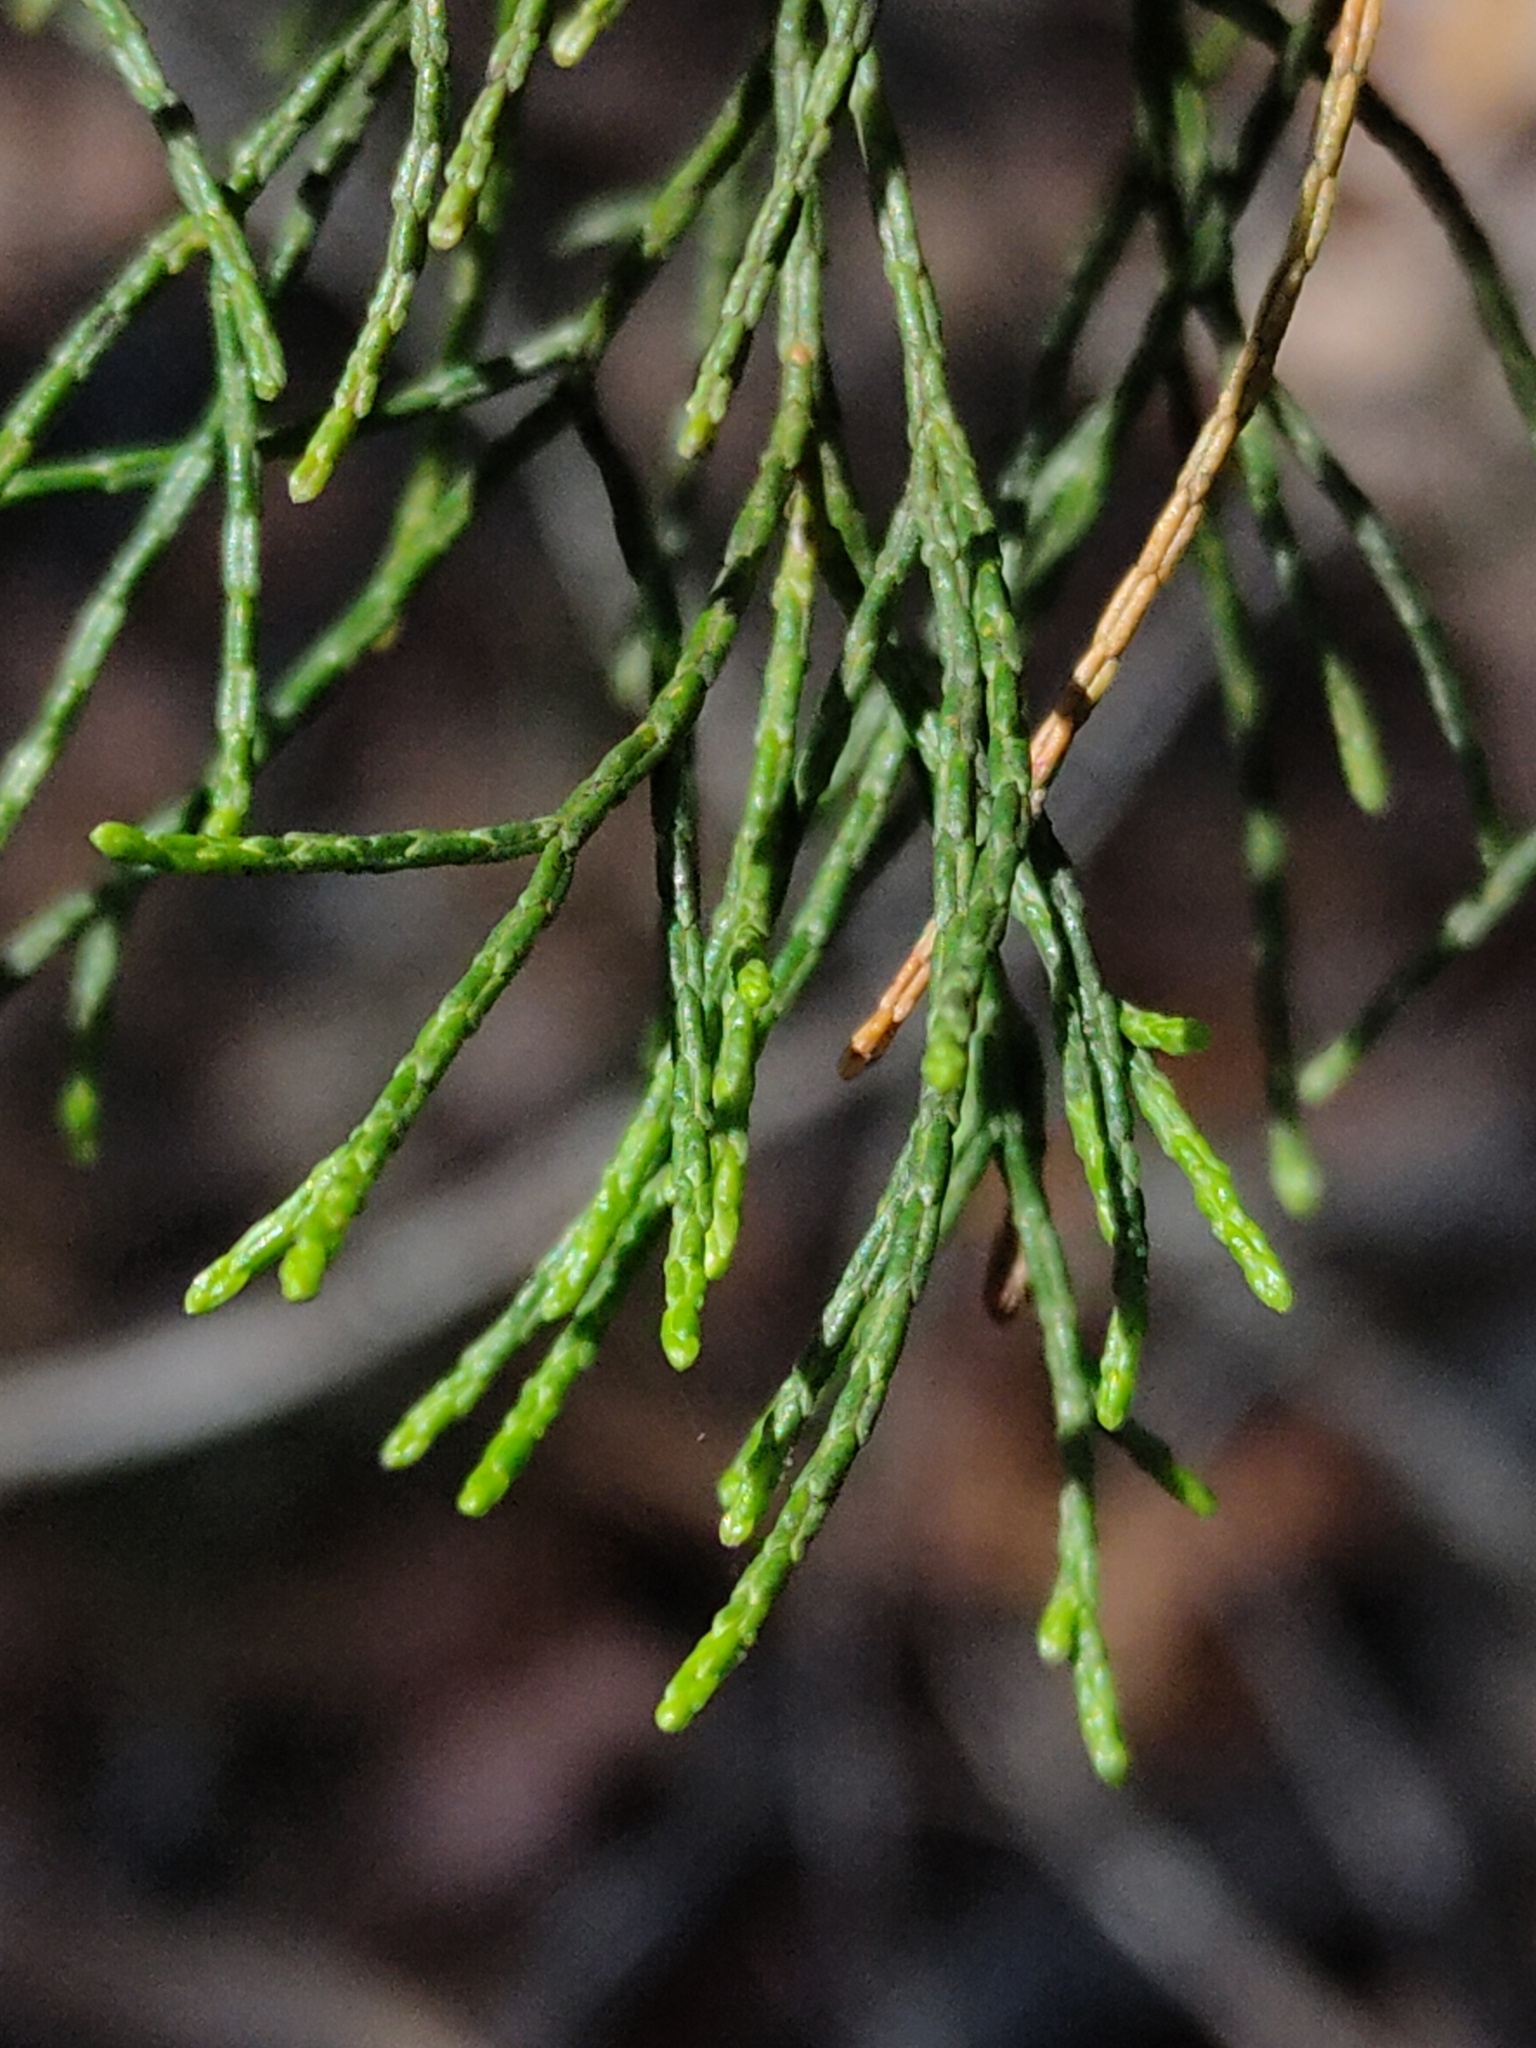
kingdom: Plantae
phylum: Tracheophyta
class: Pinopsida
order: Pinales
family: Cupressaceae
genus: Callitris
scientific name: Callitris columellaris
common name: White cypress-pine
